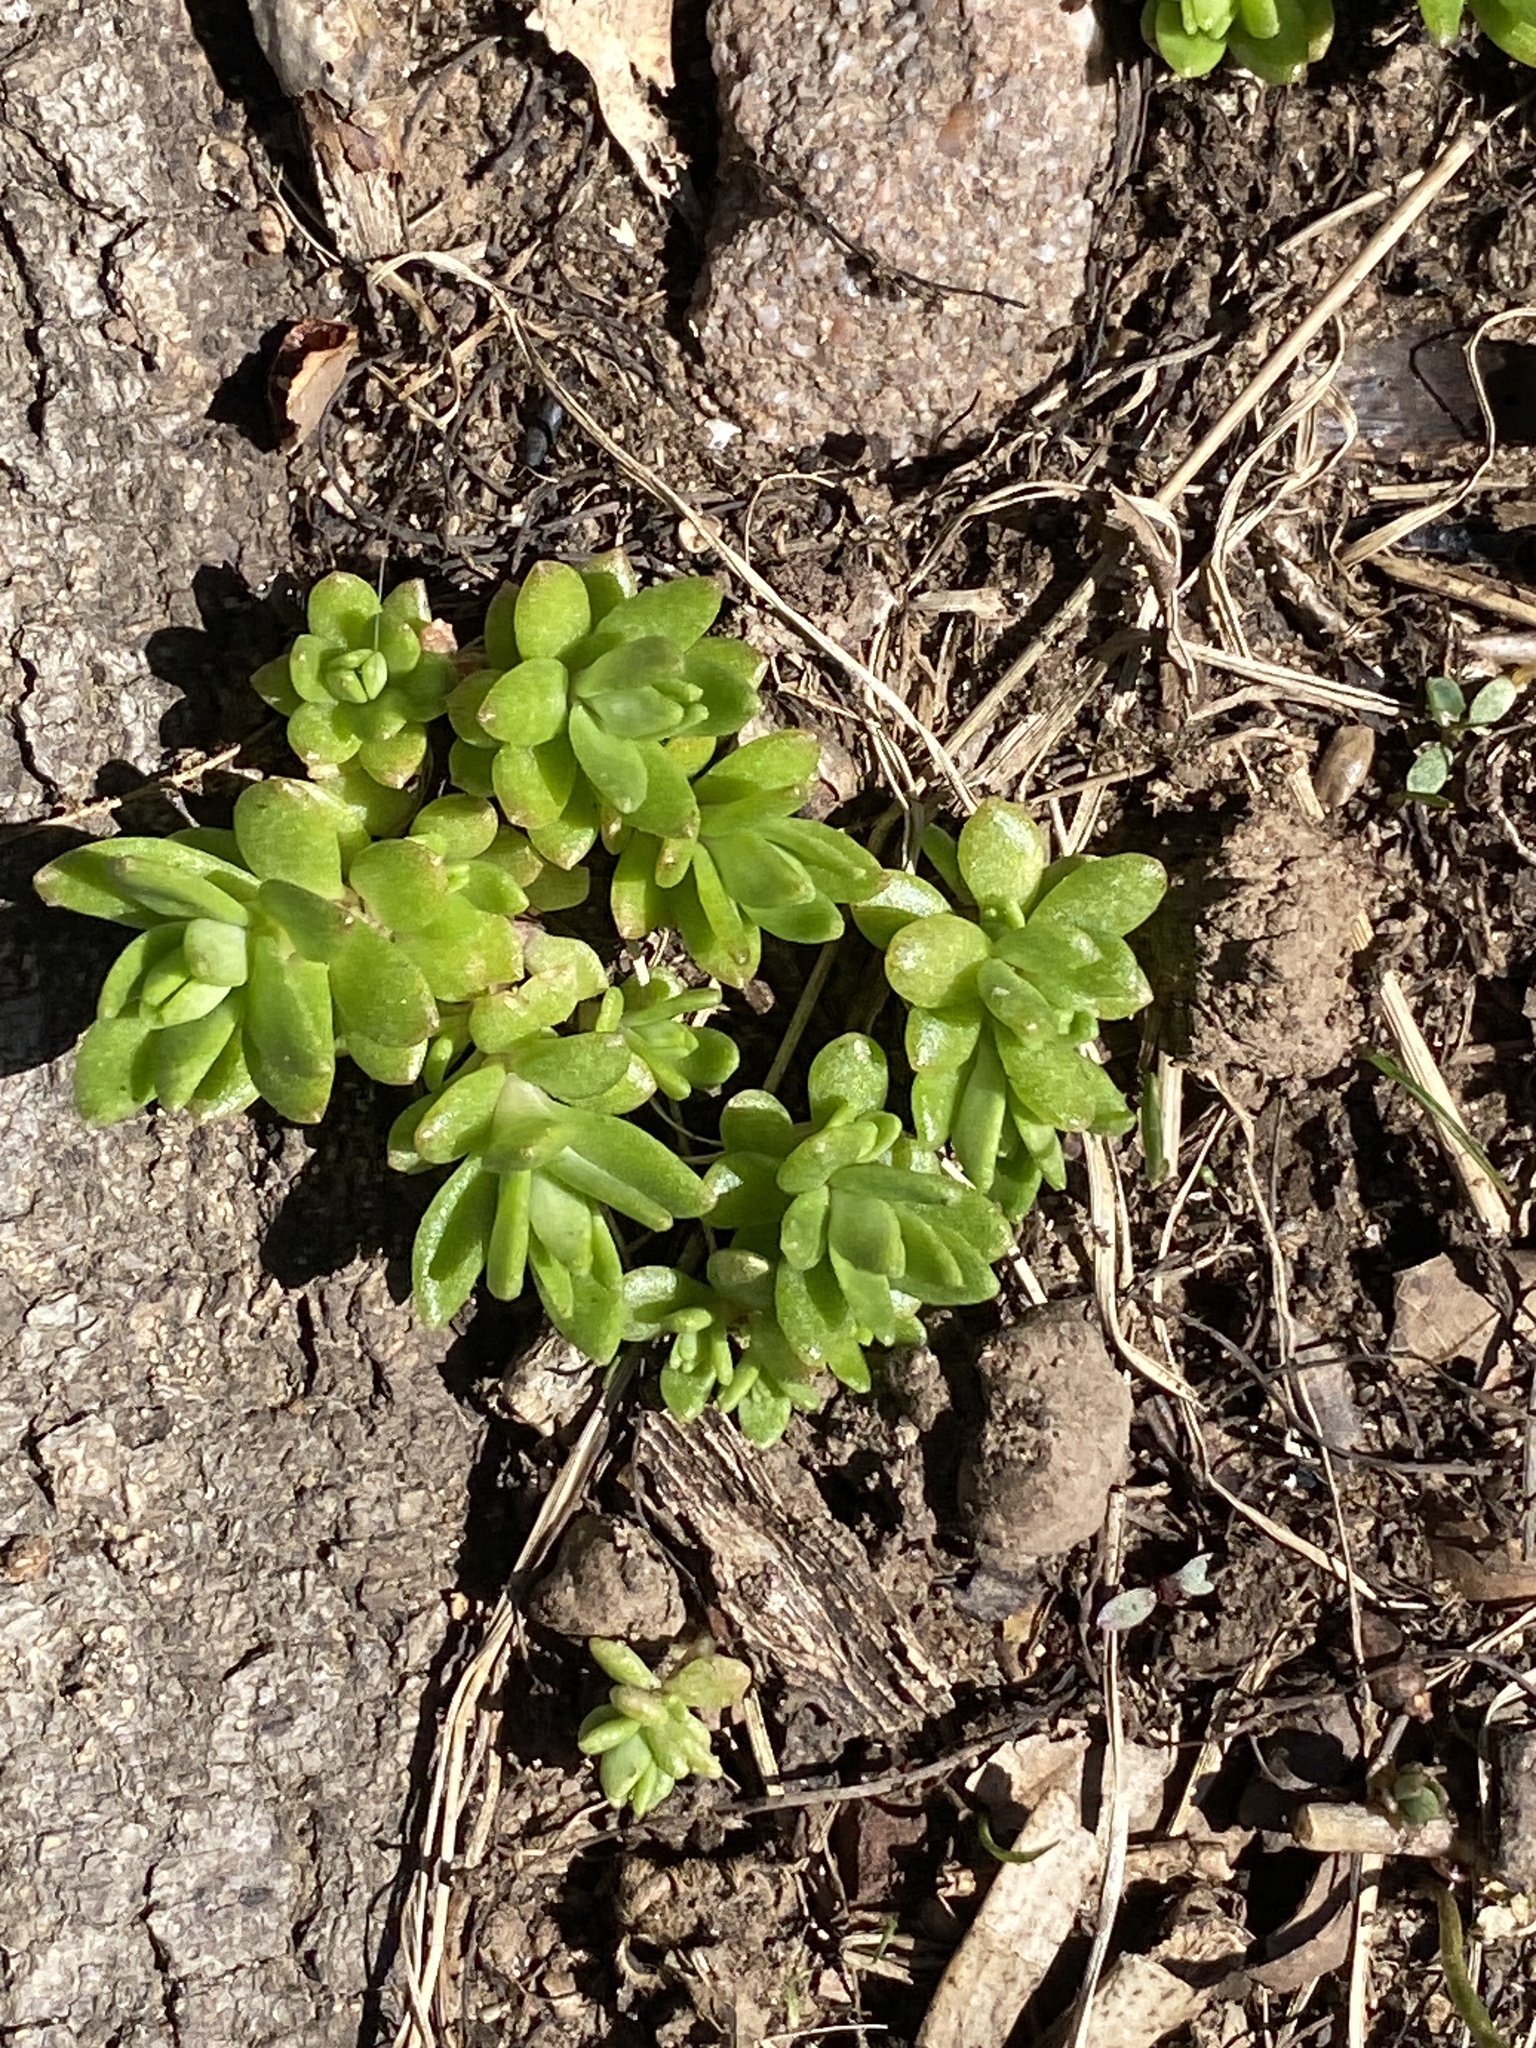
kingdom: Plantae
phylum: Tracheophyta
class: Magnoliopsida
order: Saxifragales
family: Crassulaceae
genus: Sedum
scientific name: Sedum sarmentosum
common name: Stringy stonecrop
